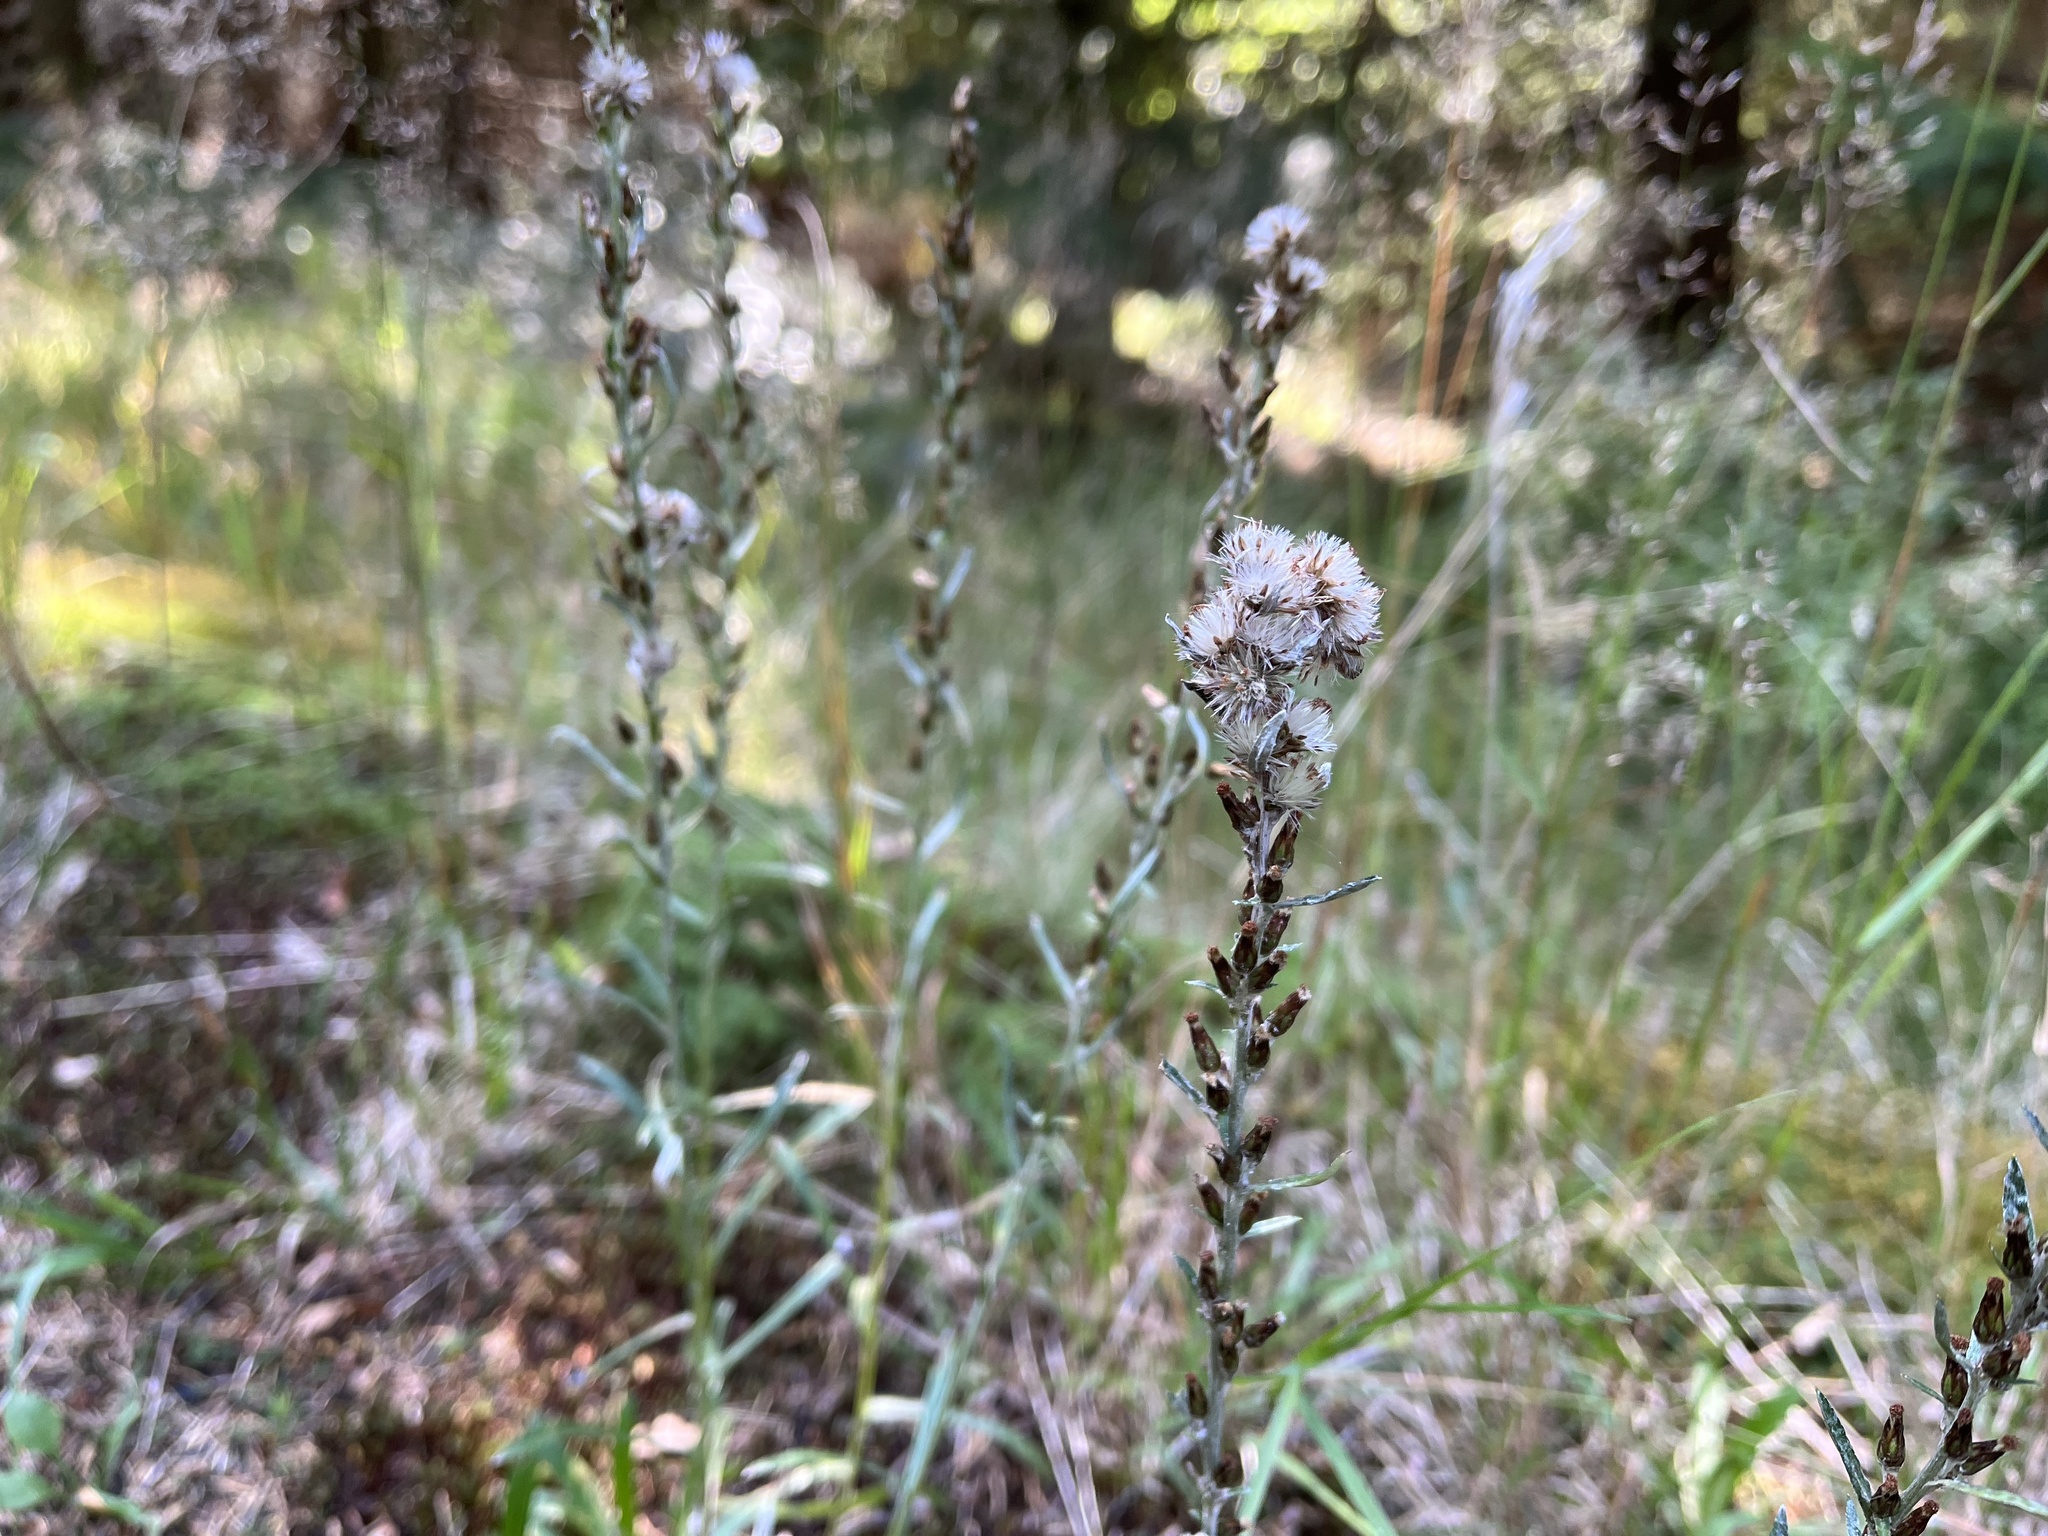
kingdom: Plantae
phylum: Tracheophyta
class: Magnoliopsida
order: Asterales
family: Asteraceae
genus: Omalotheca
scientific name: Omalotheca sylvatica
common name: Heath cudweed
